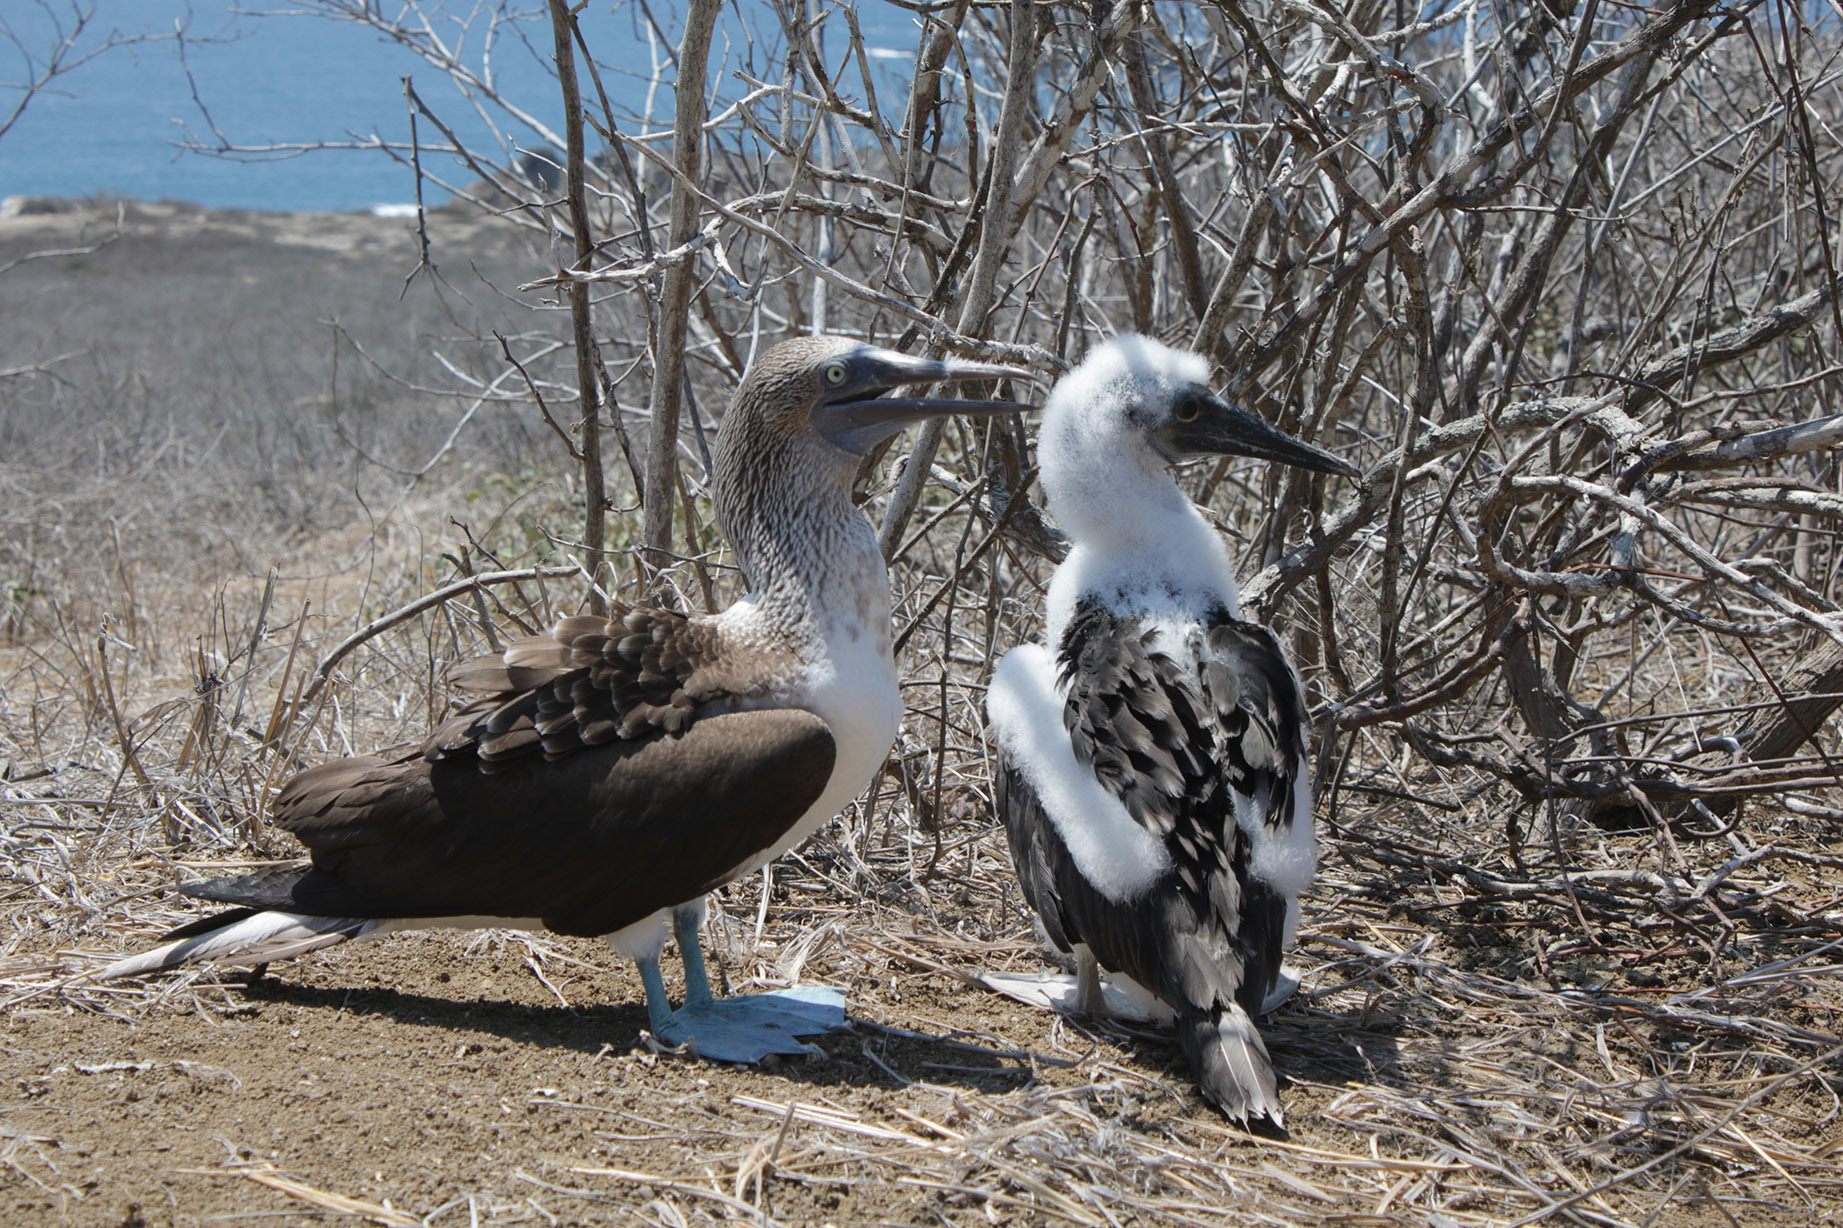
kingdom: Animalia
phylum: Chordata
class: Aves
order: Suliformes
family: Sulidae
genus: Sula
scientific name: Sula nebouxii
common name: Blue-footed booby
